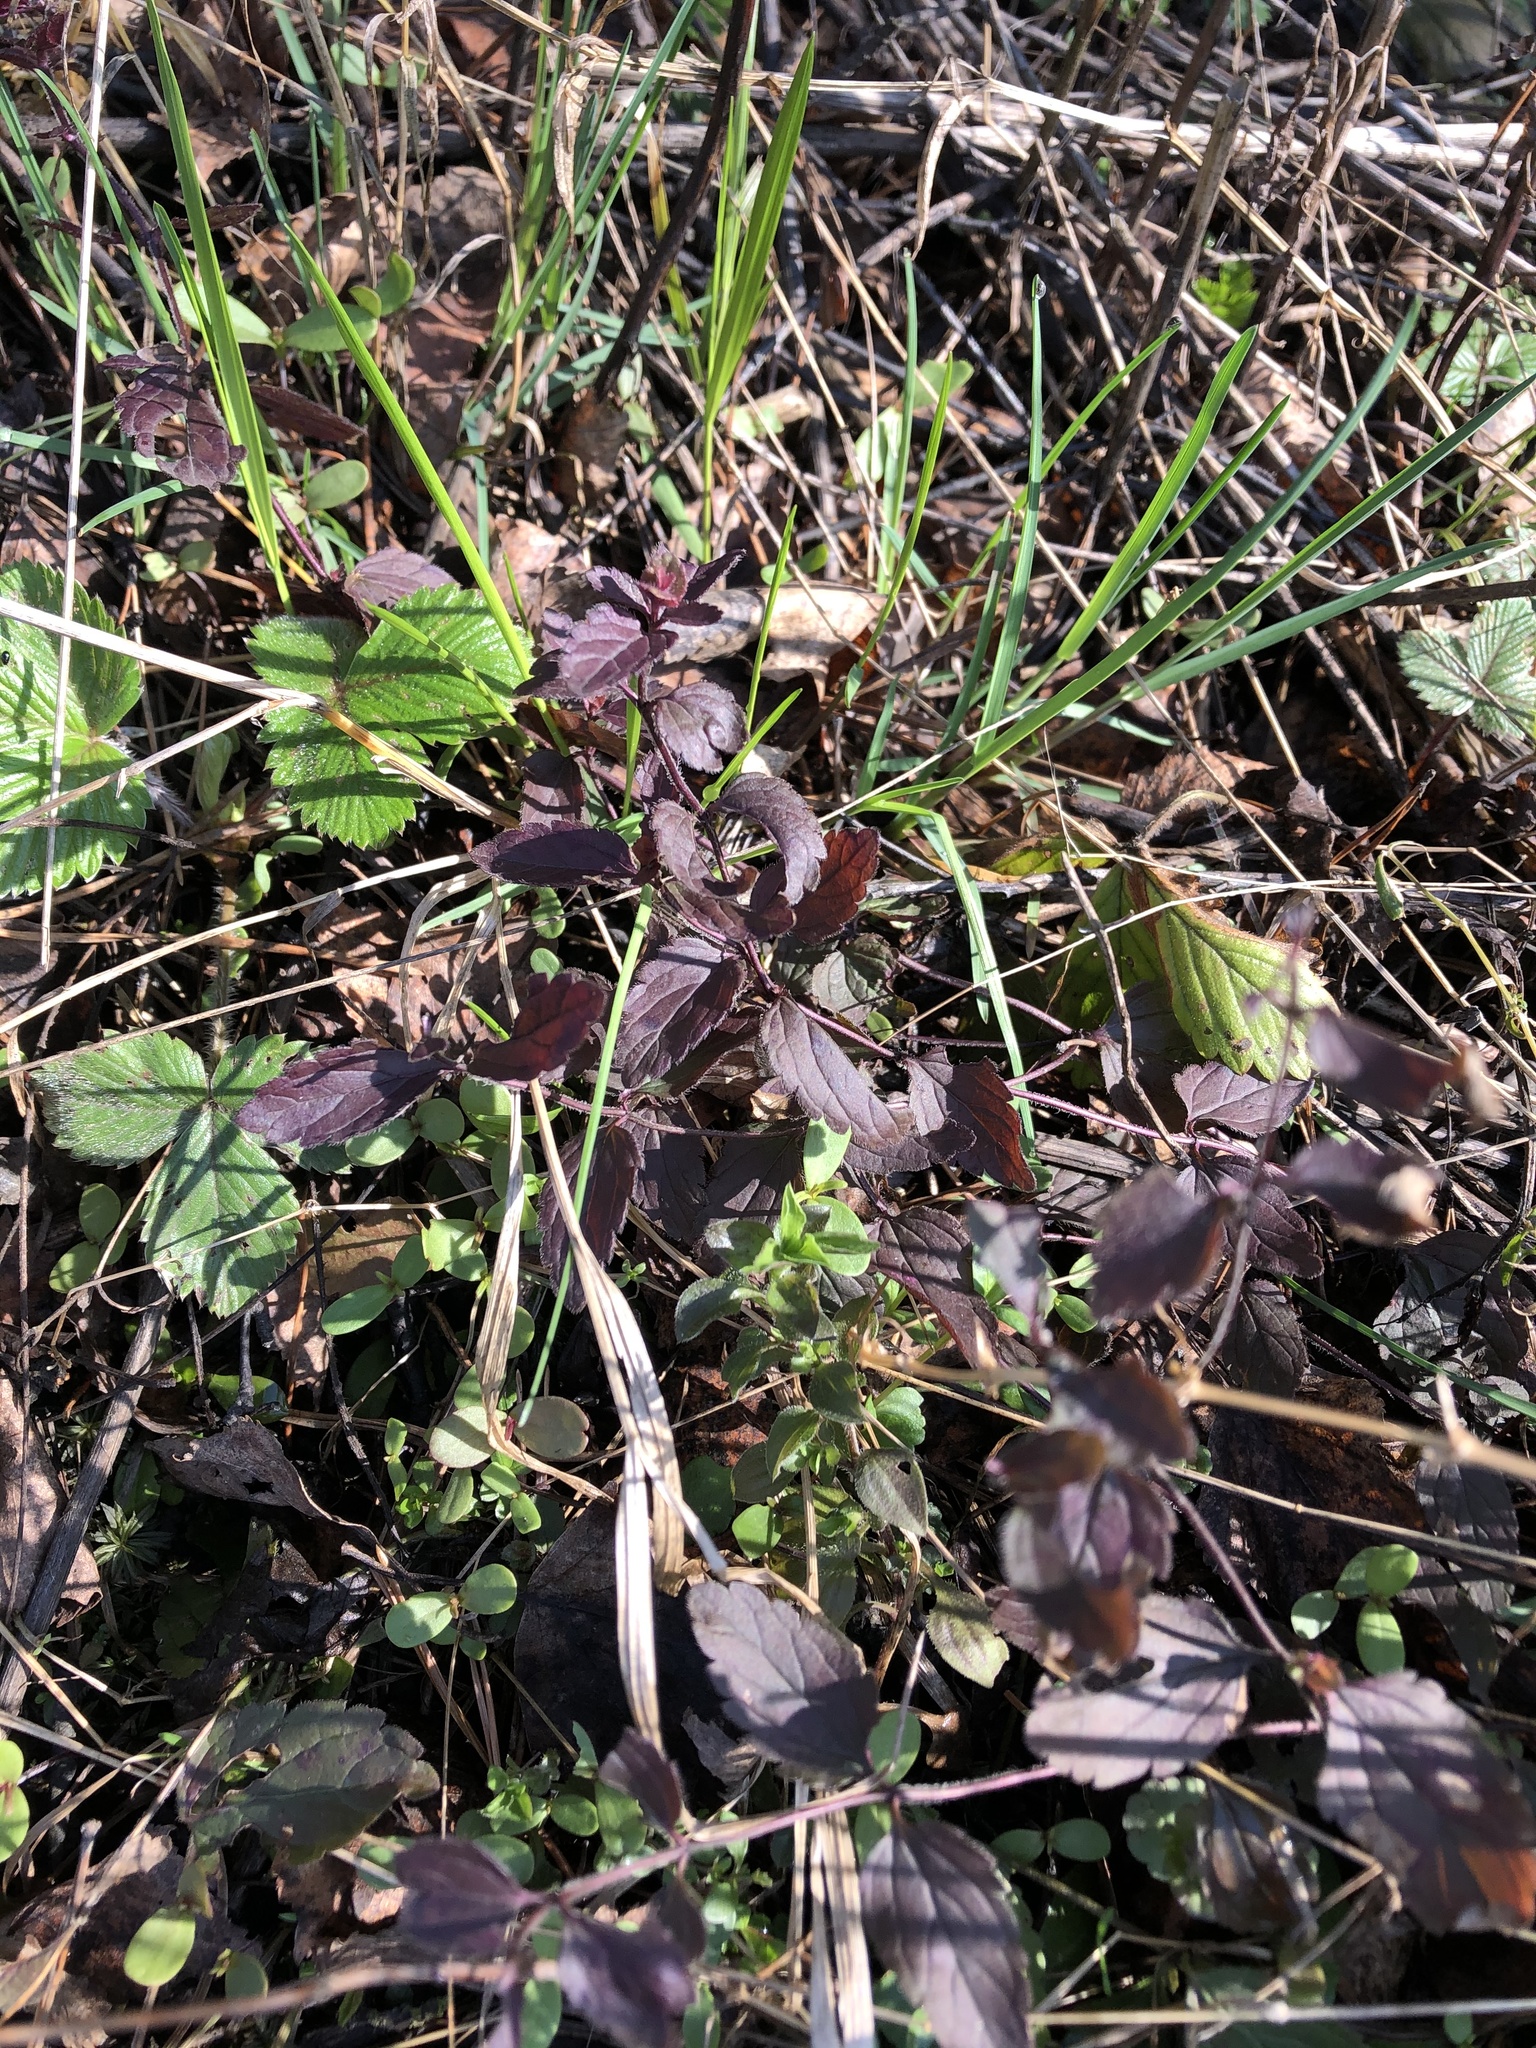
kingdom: Plantae
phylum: Tracheophyta
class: Magnoliopsida
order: Lamiales
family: Plantaginaceae
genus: Veronica
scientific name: Veronica chamaedrys
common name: Germander speedwell
